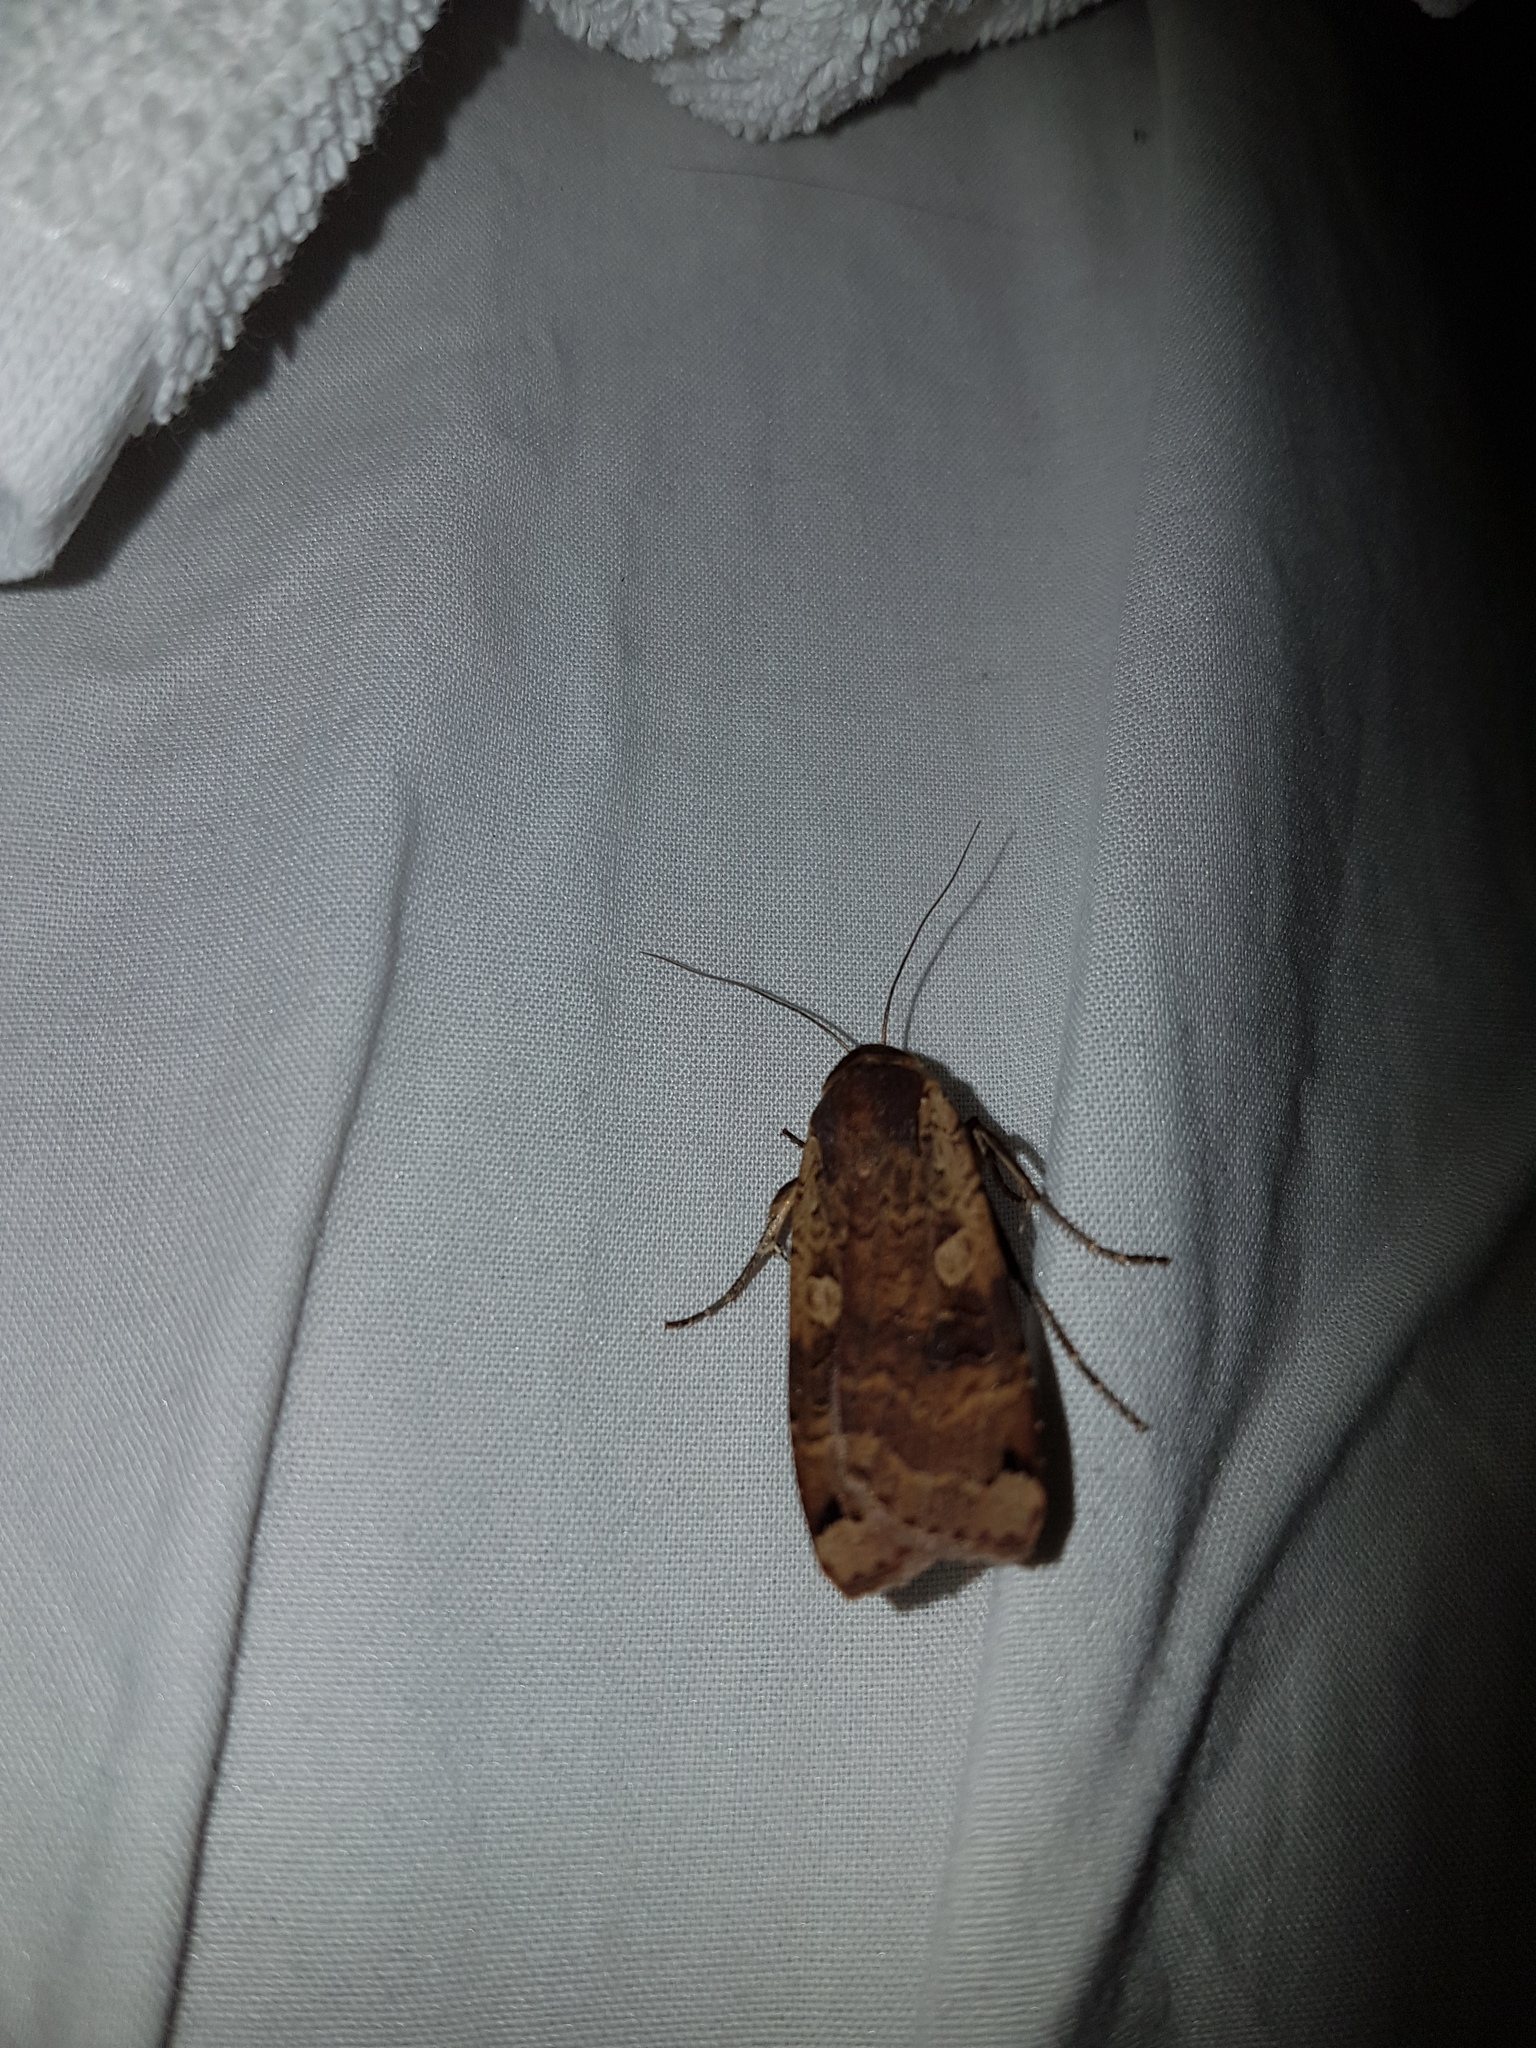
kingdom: Animalia
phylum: Arthropoda
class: Insecta
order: Lepidoptera
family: Noctuidae
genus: Noctua
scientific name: Noctua pronuba
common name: Large yellow underwing
